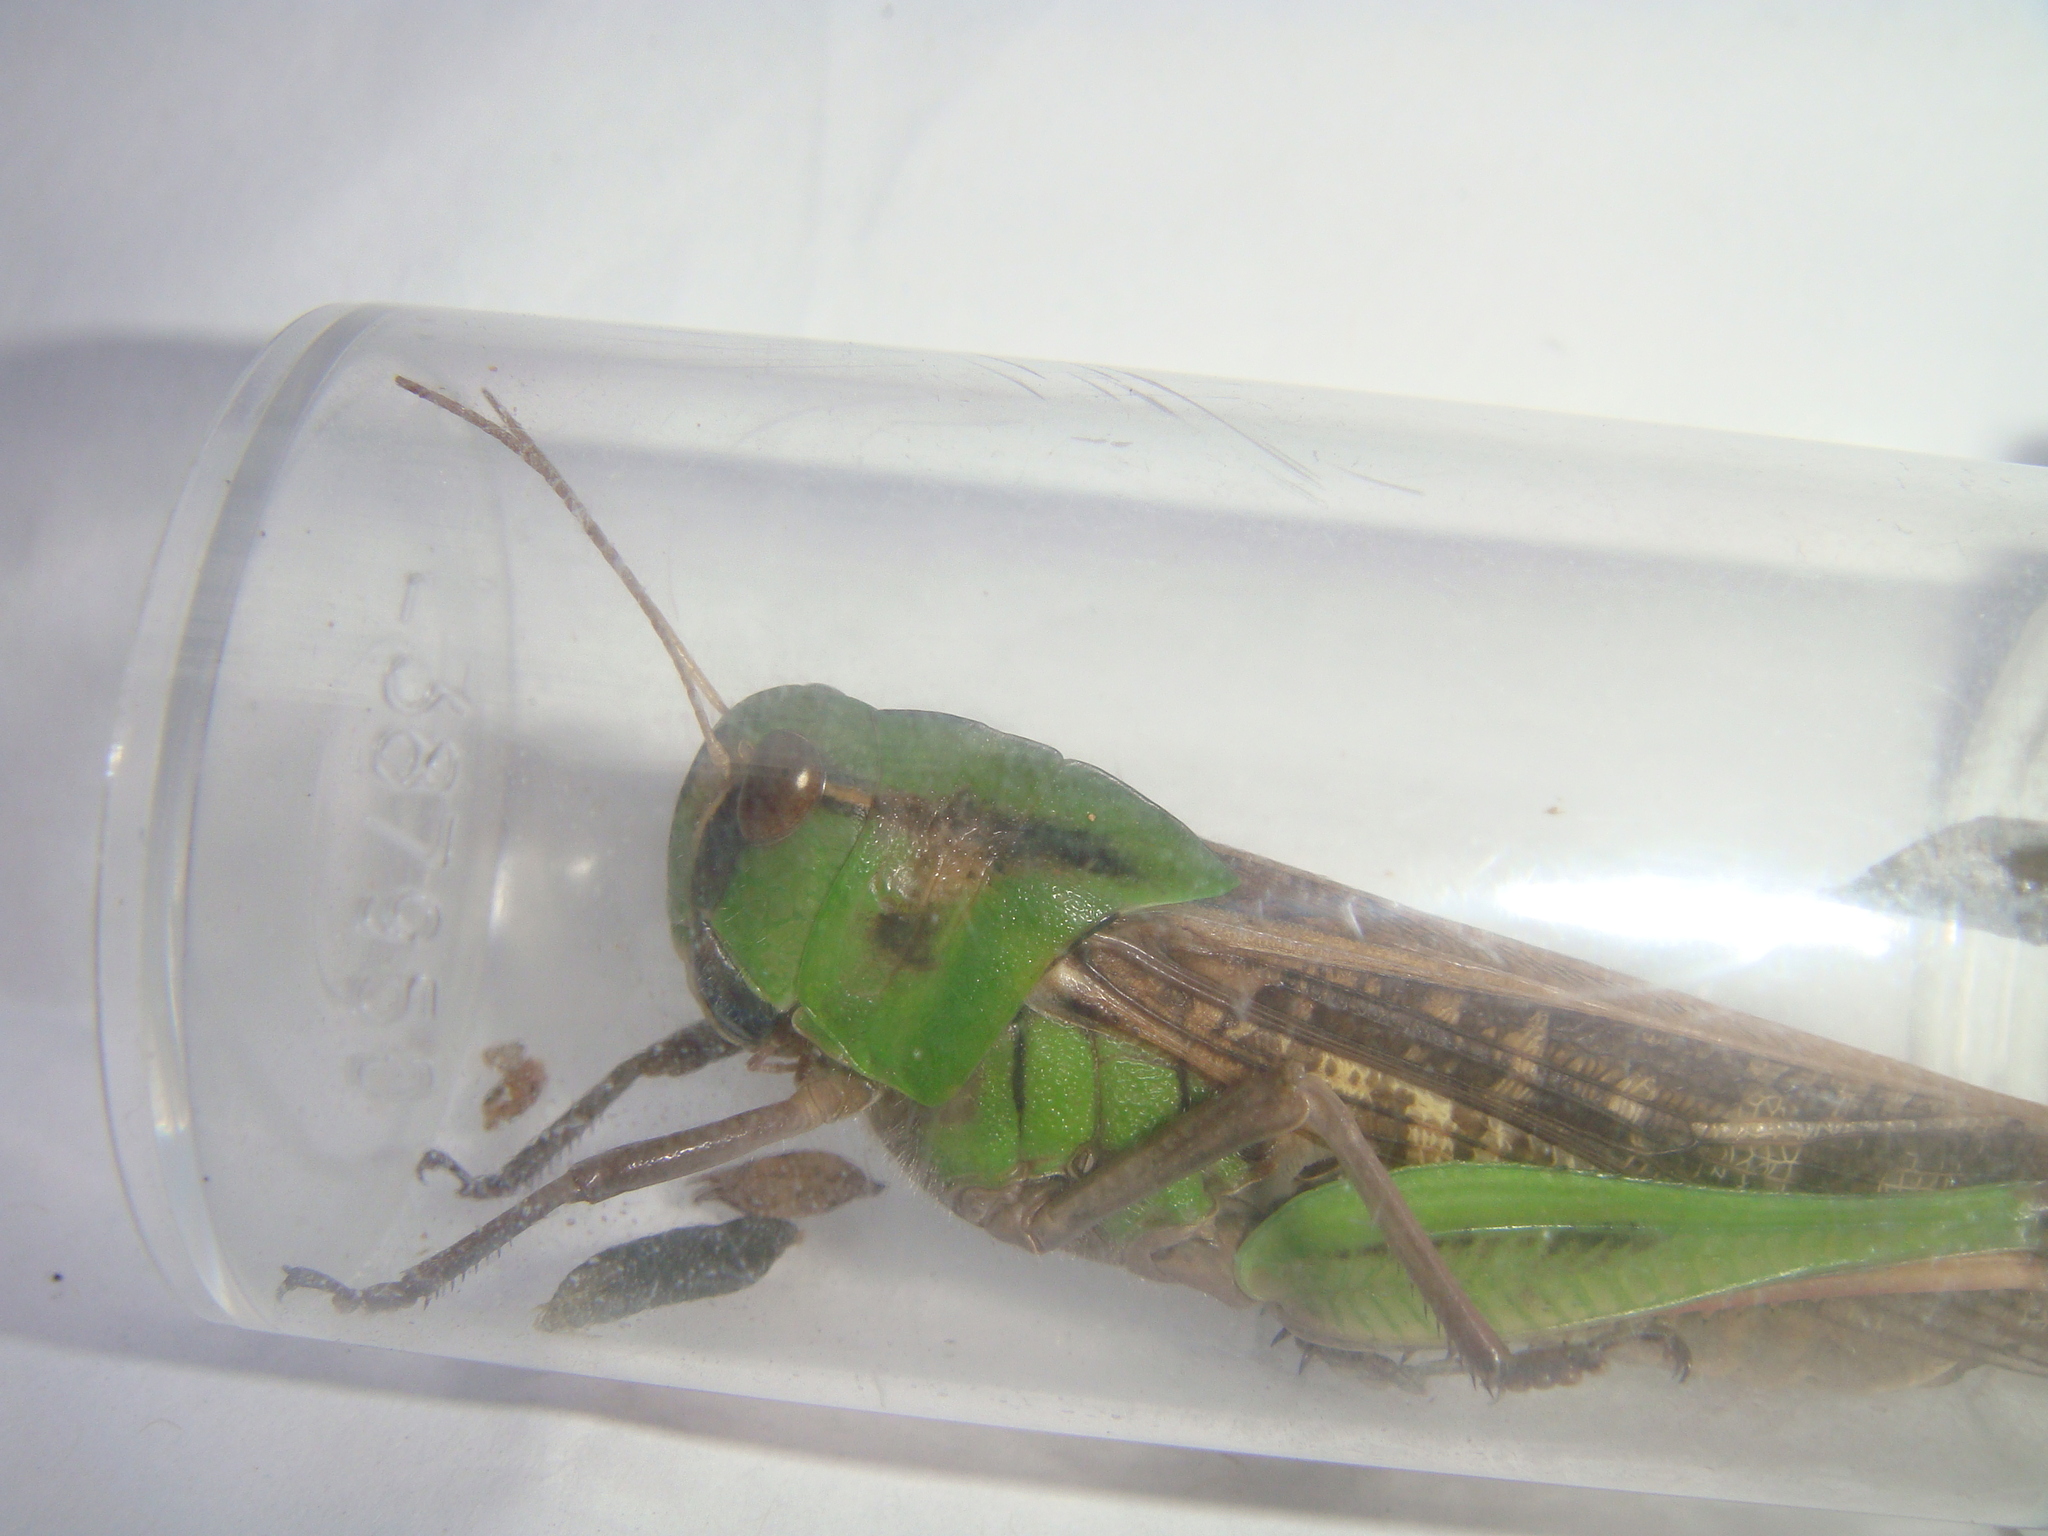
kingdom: Animalia
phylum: Arthropoda
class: Insecta
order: Orthoptera
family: Acrididae
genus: Locusta
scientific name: Locusta migratoria
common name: Migratory locust
